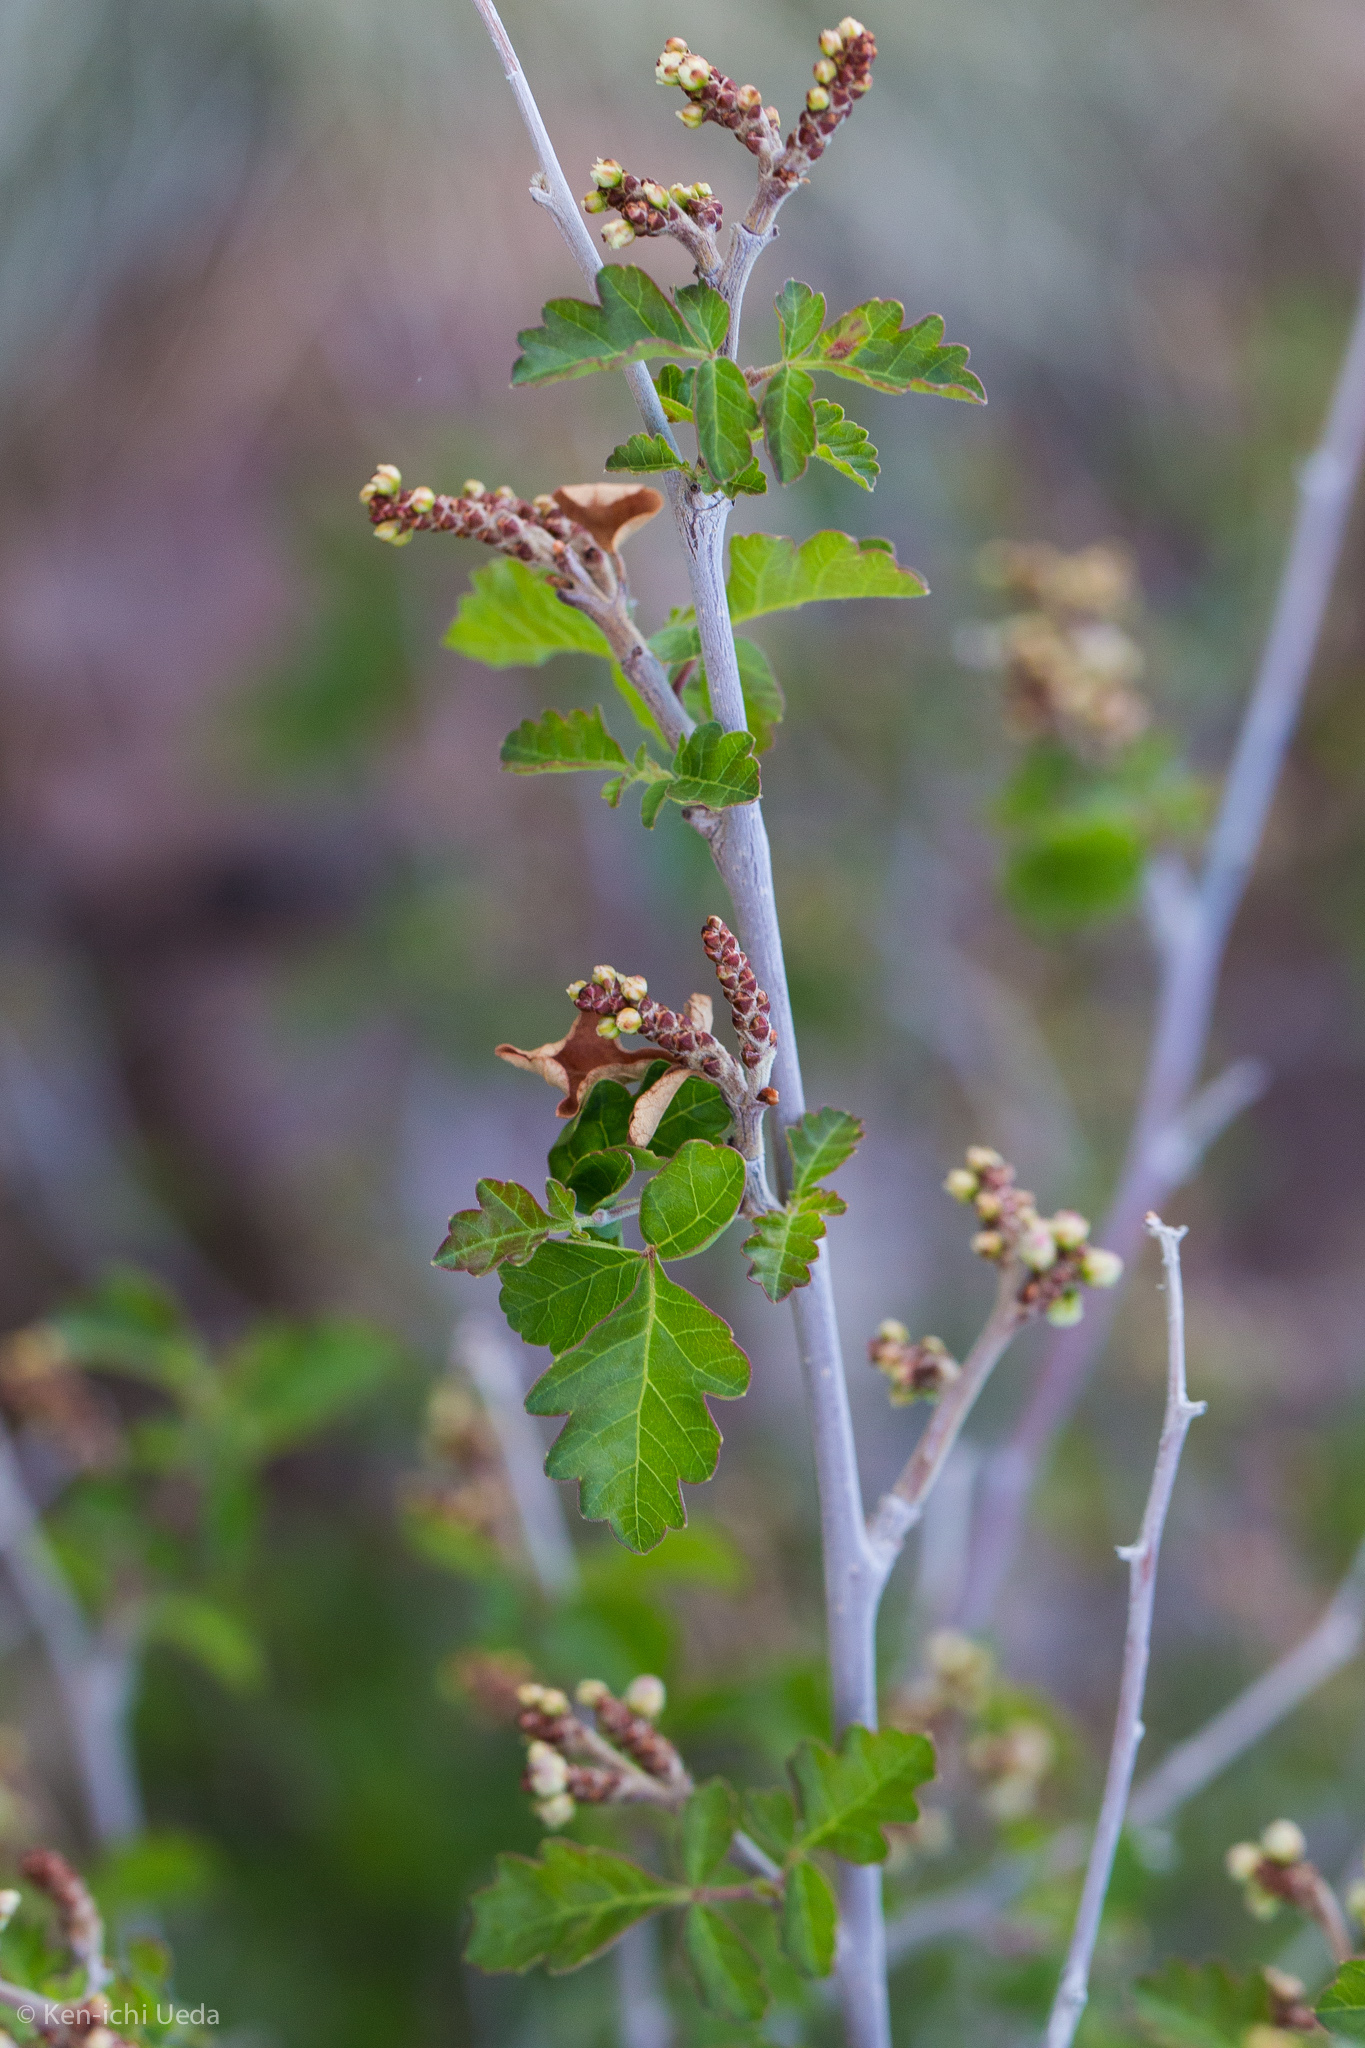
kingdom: Plantae
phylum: Tracheophyta
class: Magnoliopsida
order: Sapindales
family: Anacardiaceae
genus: Rhus
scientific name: Rhus aromatica
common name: Aromatic sumac
